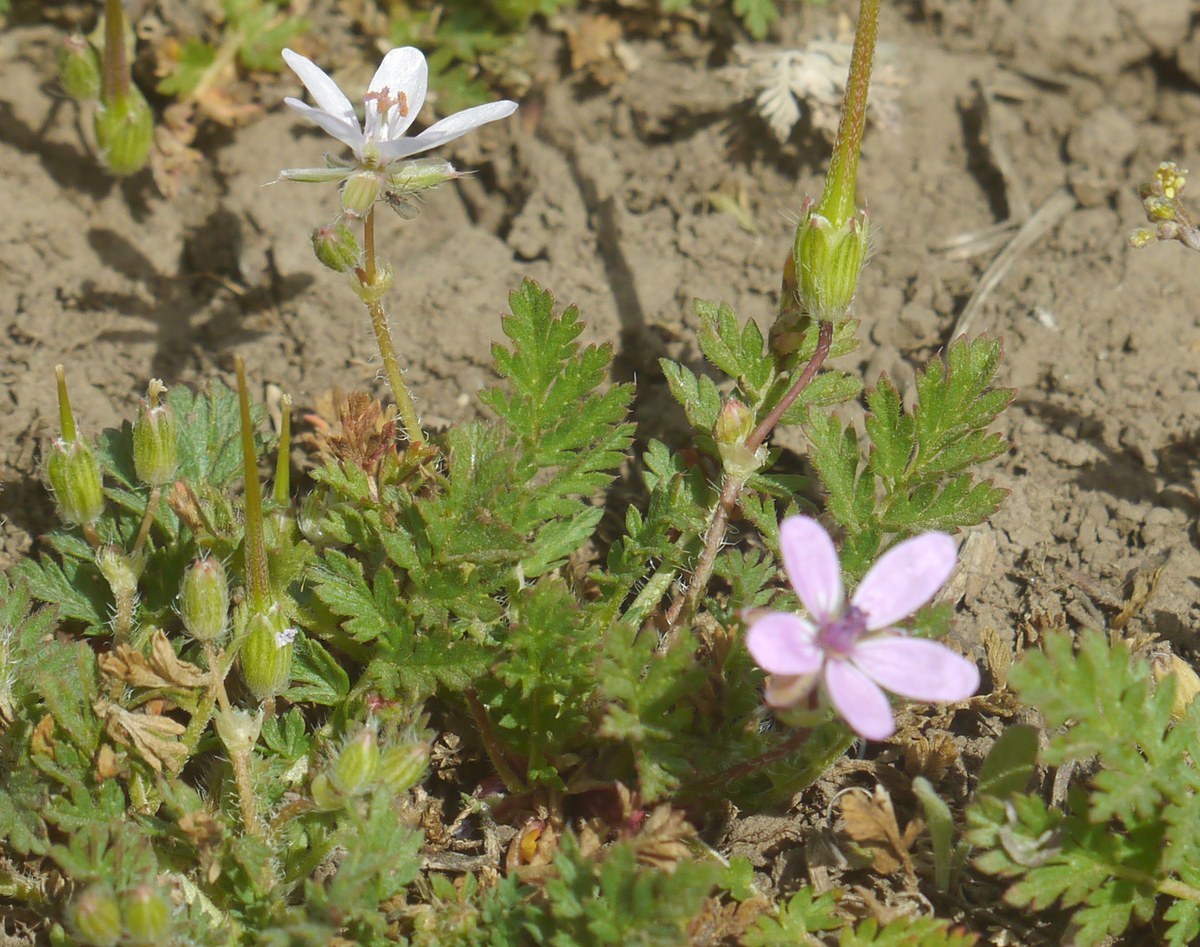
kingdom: Plantae
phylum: Tracheophyta
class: Magnoliopsida
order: Geraniales
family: Geraniaceae
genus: Erodium
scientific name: Erodium cicutarium
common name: Common stork's-bill
